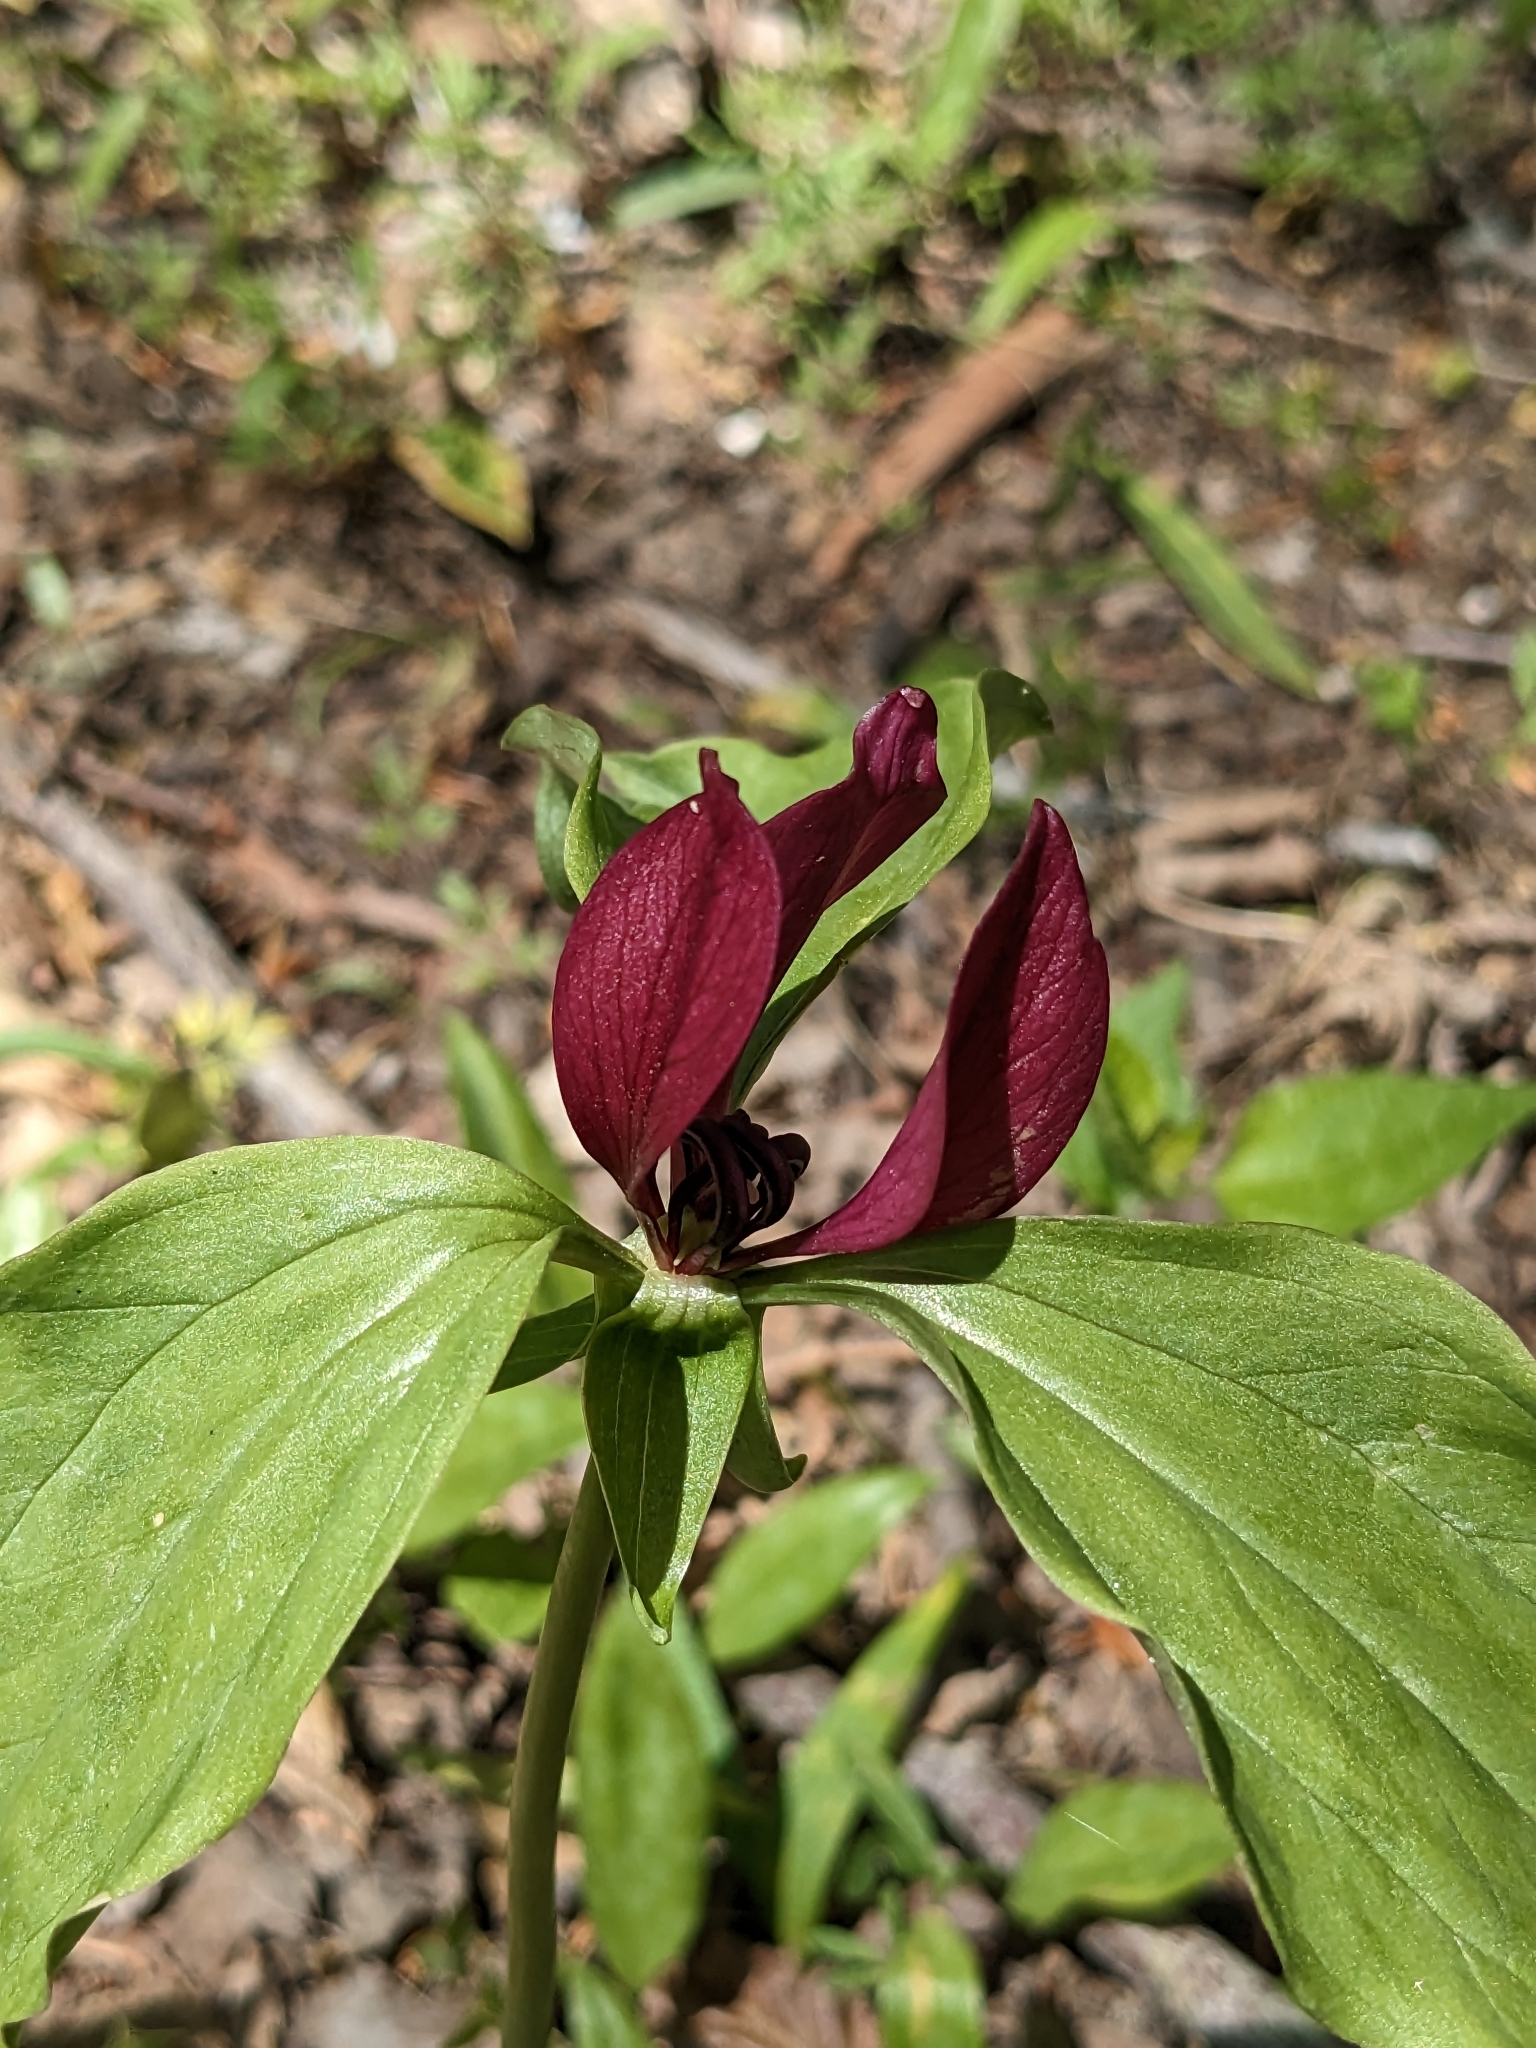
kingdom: Plantae
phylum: Tracheophyta
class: Liliopsida
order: Liliales
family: Melanthiaceae
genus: Trillium
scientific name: Trillium recurvatum
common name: Bloody butcher
